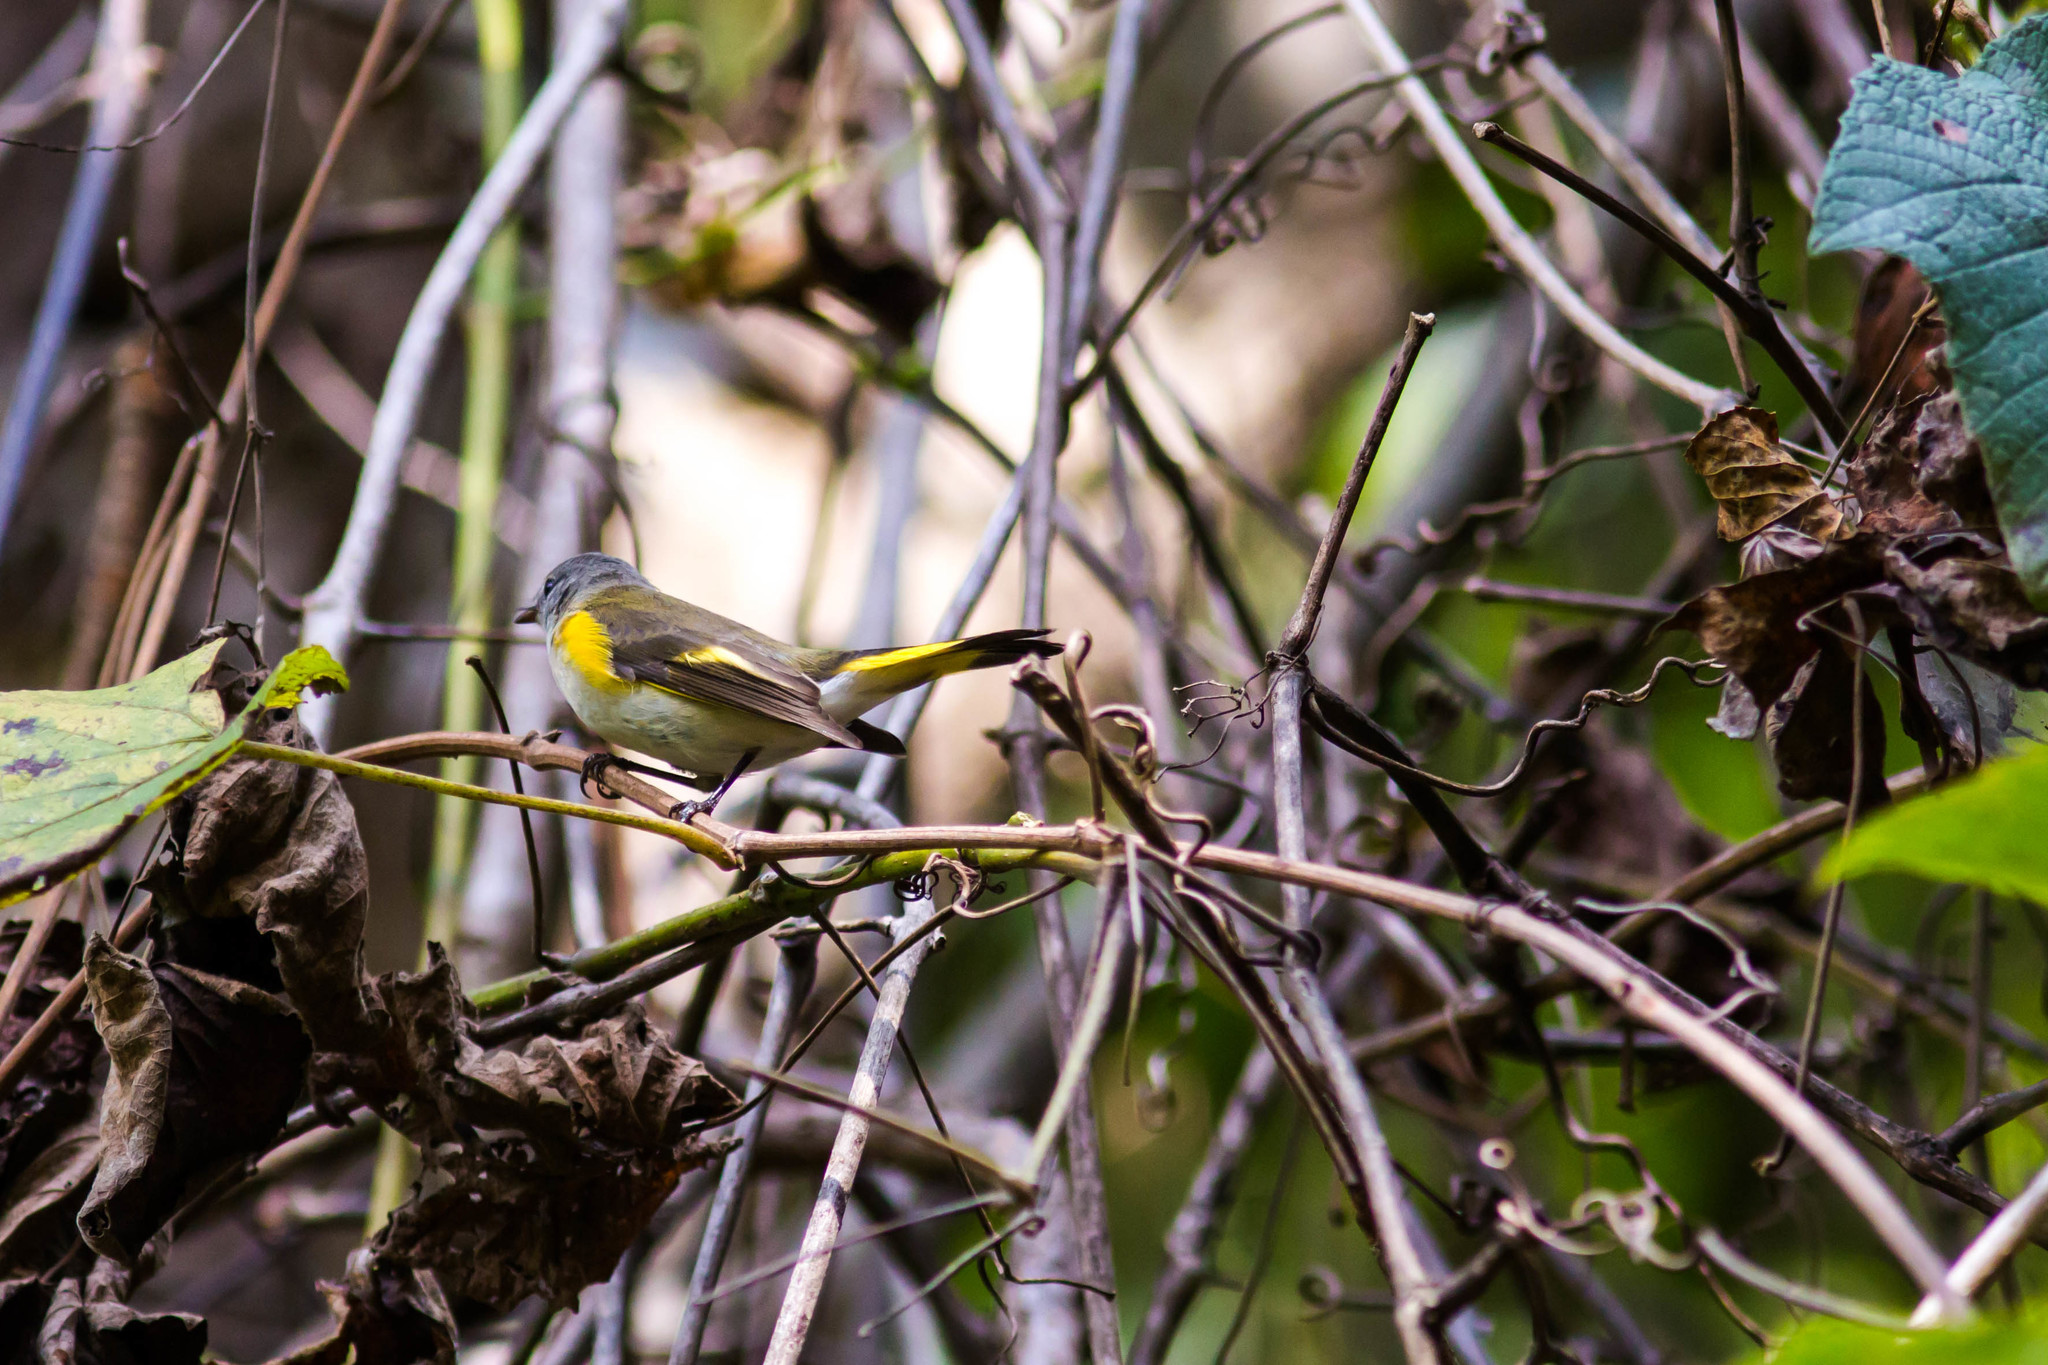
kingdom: Animalia
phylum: Chordata
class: Aves
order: Passeriformes
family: Parulidae
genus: Setophaga
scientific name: Setophaga ruticilla
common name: American redstart
